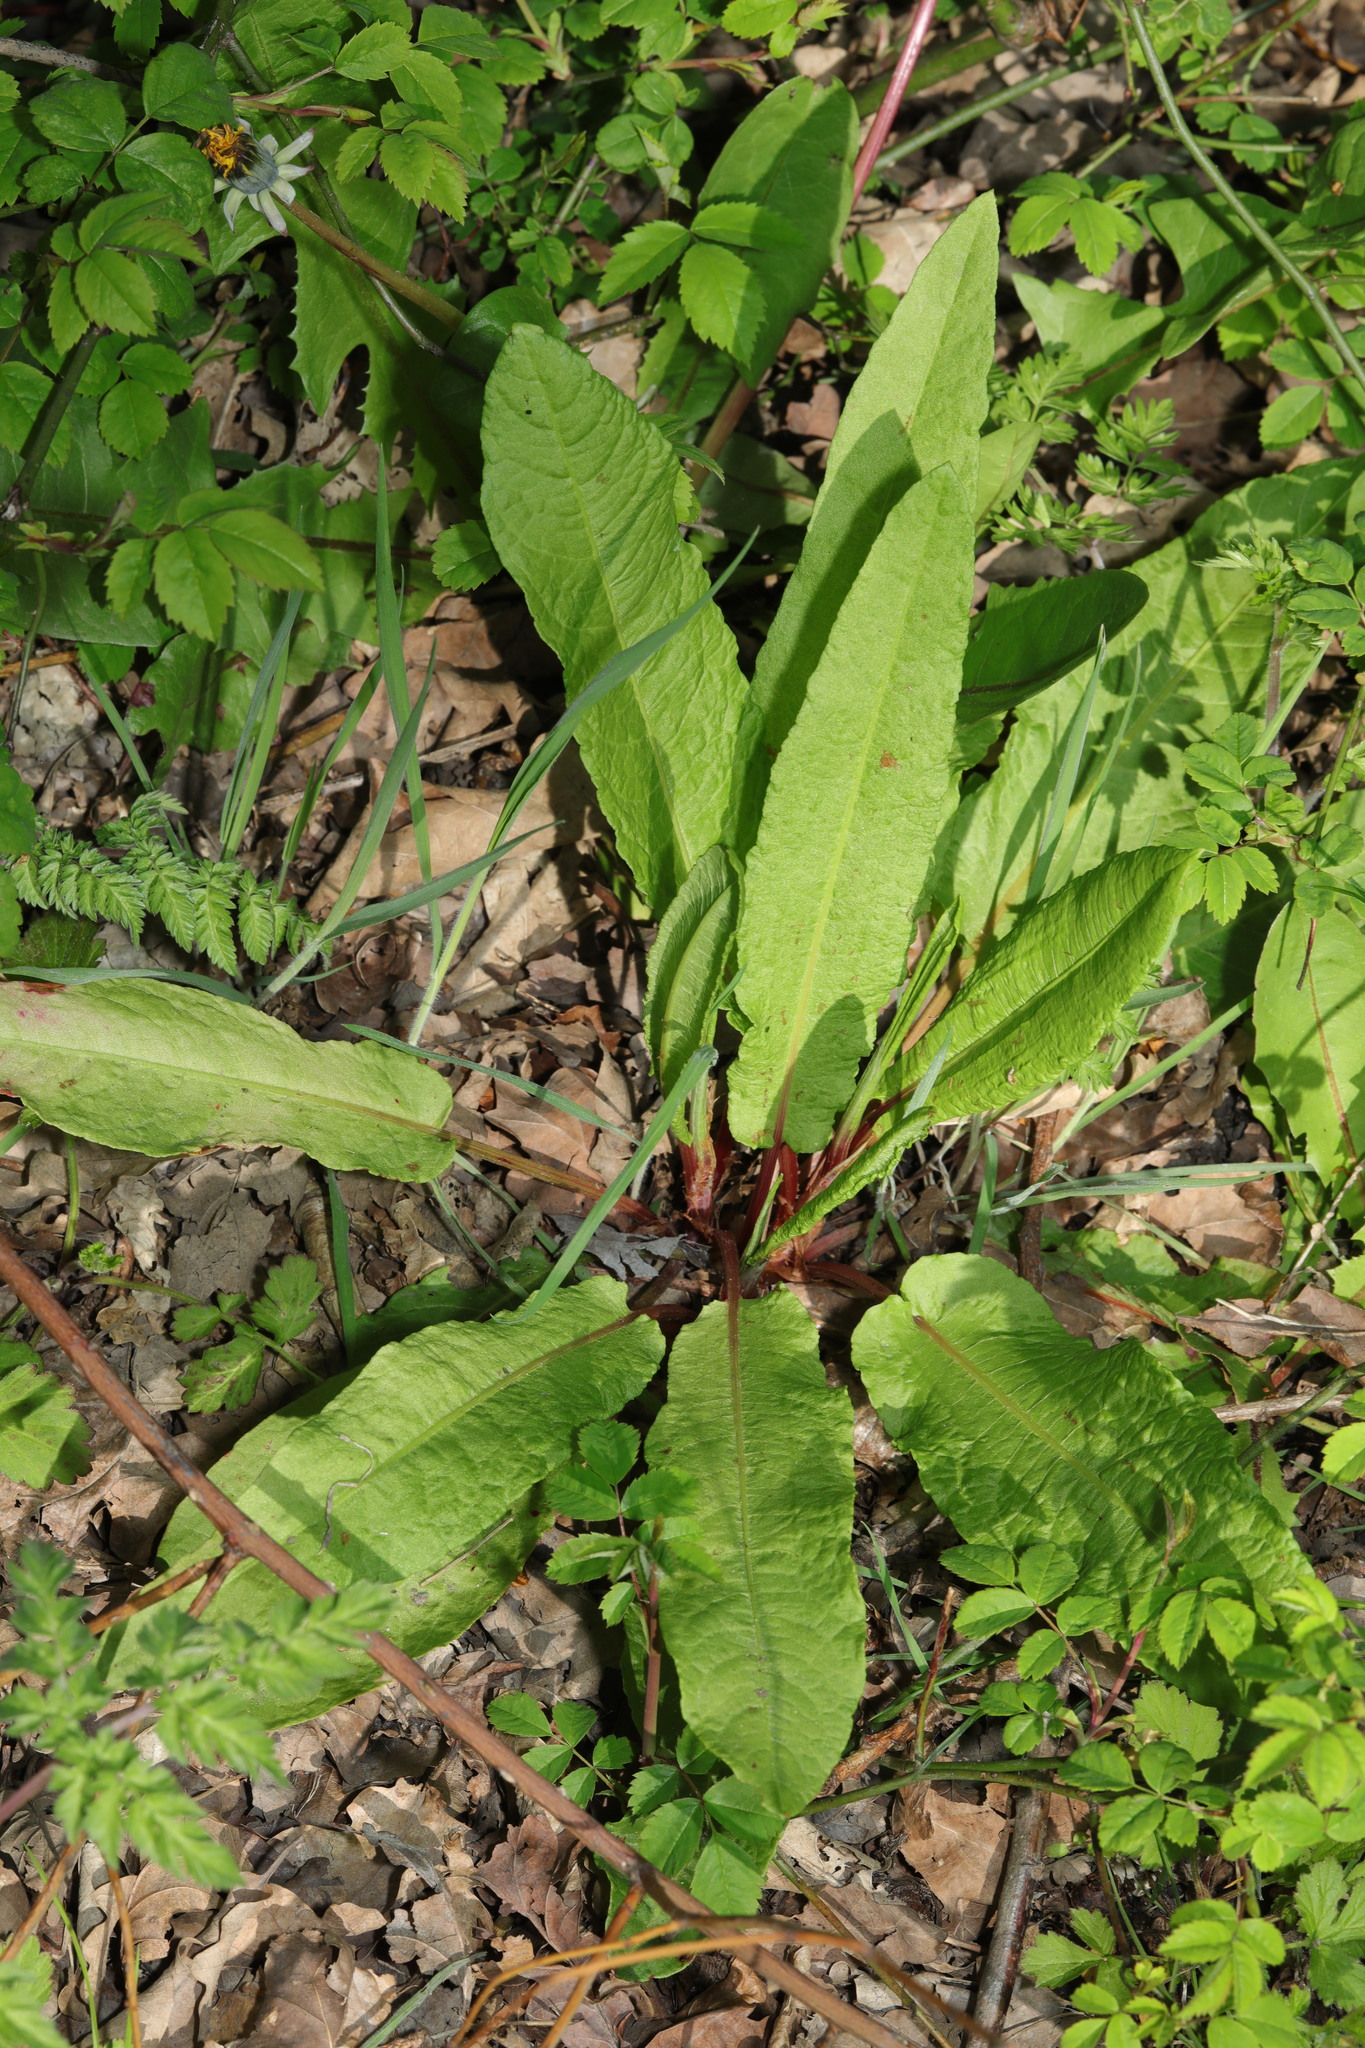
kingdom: Plantae
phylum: Tracheophyta
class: Magnoliopsida
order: Caryophyllales
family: Polygonaceae
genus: Rumex
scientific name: Rumex sanguineus
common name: Wood dock
